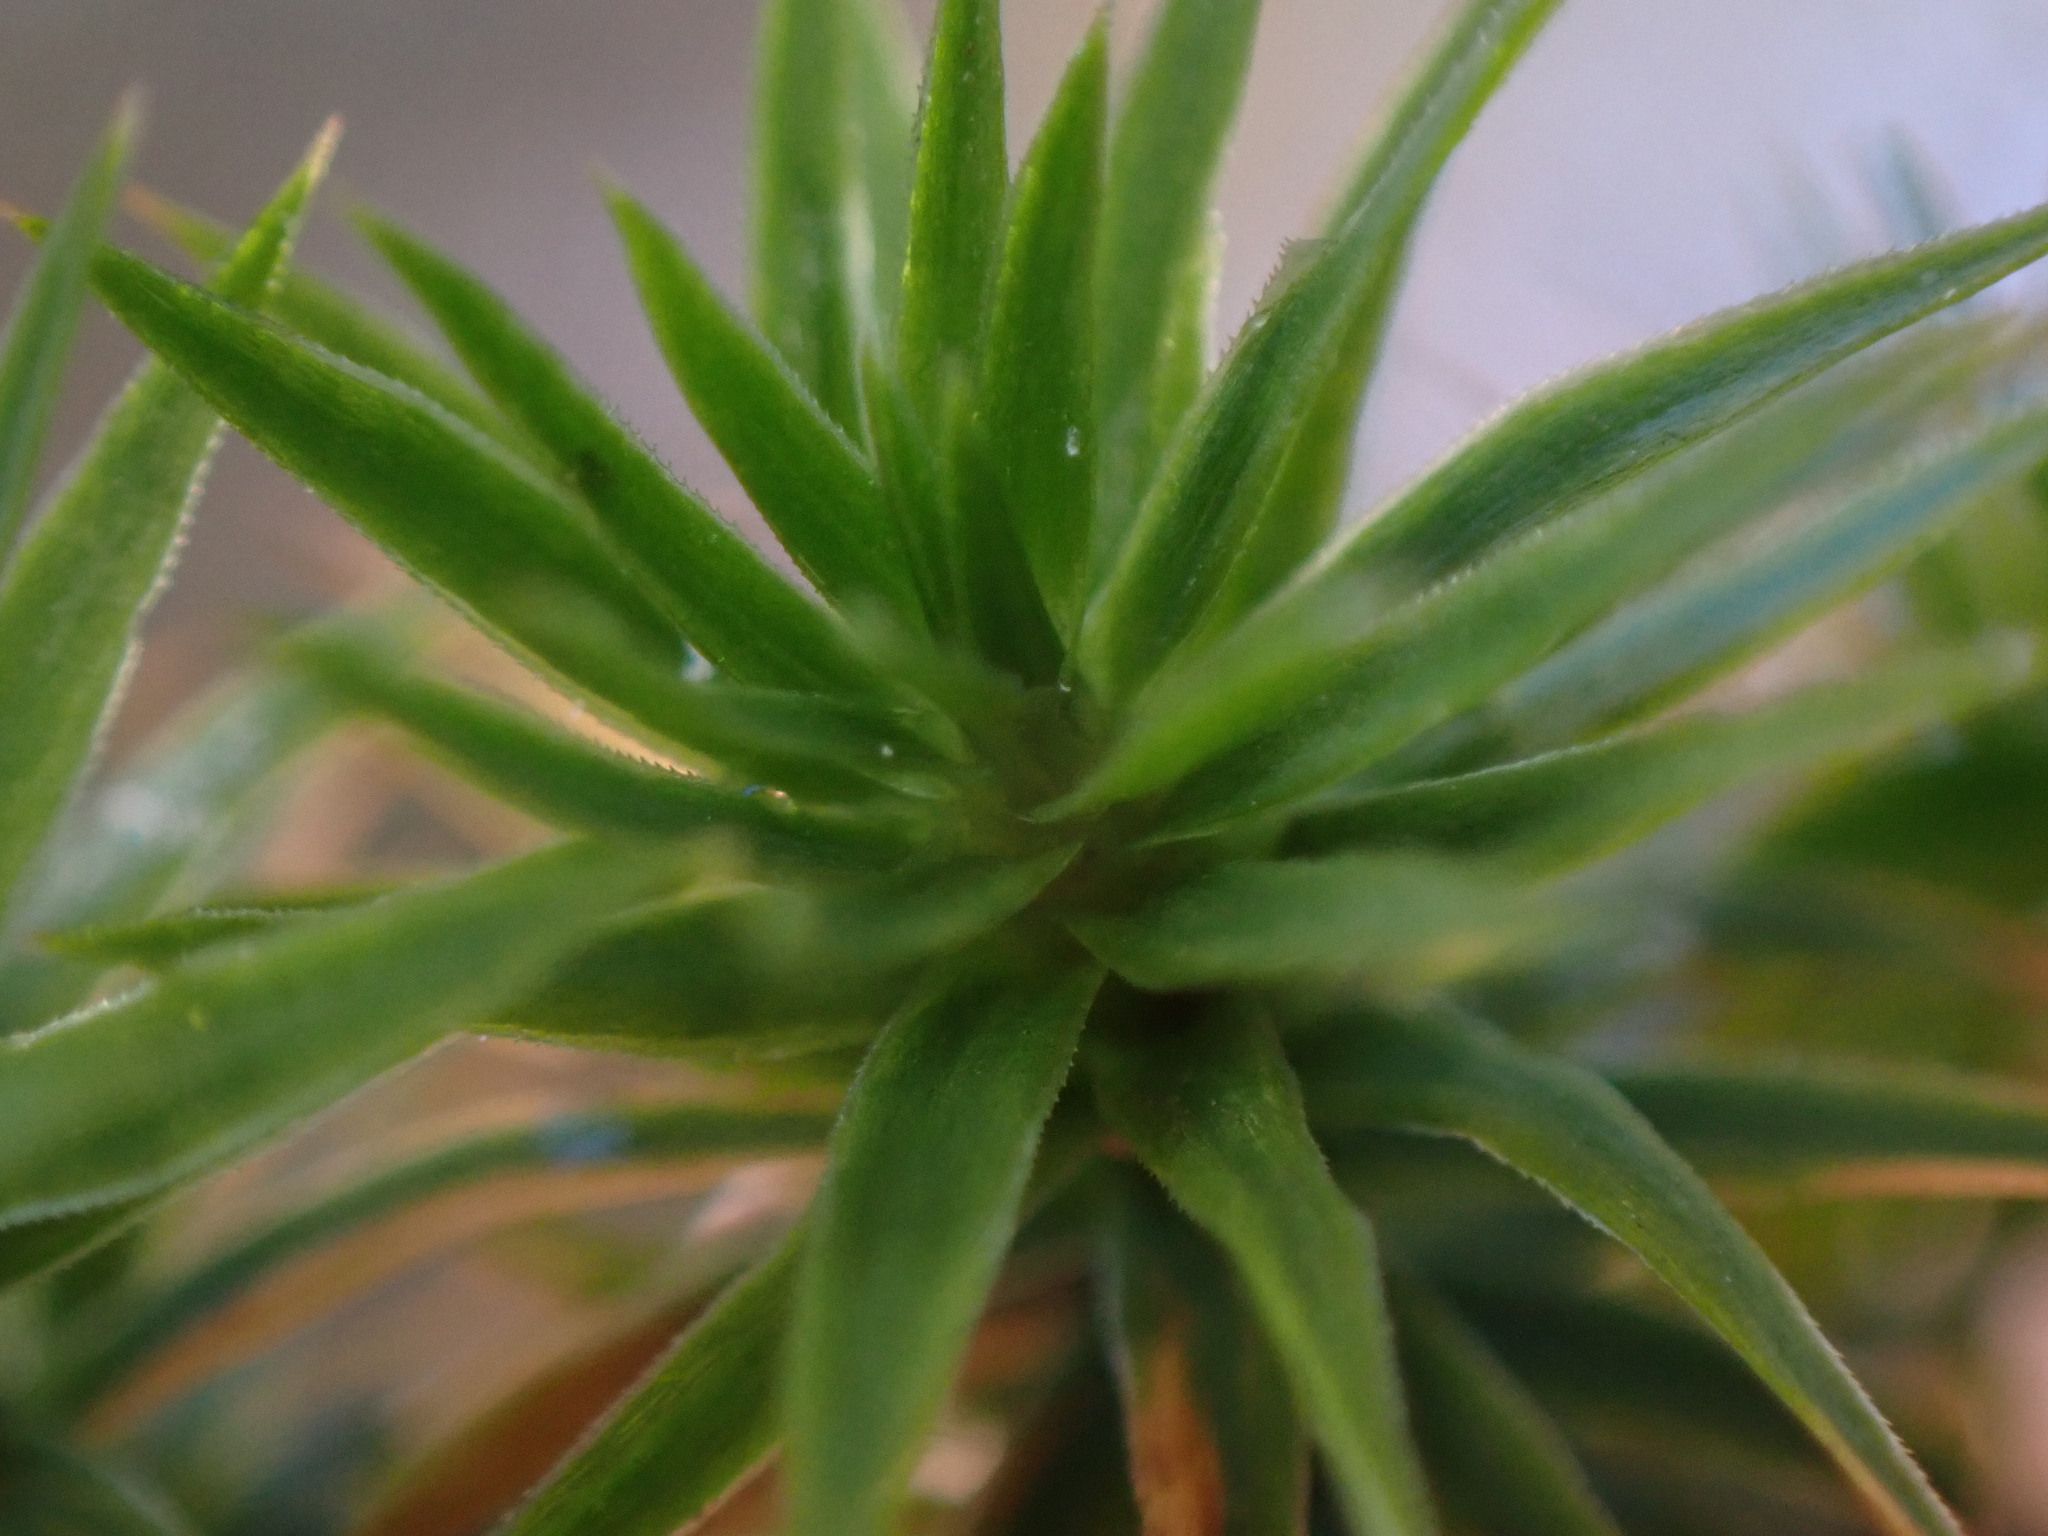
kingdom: Plantae
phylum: Bryophyta
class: Polytrichopsida
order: Polytrichales
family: Polytrichaceae
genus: Polytrichum
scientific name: Polytrichum formosum
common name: Bank haircap moss
